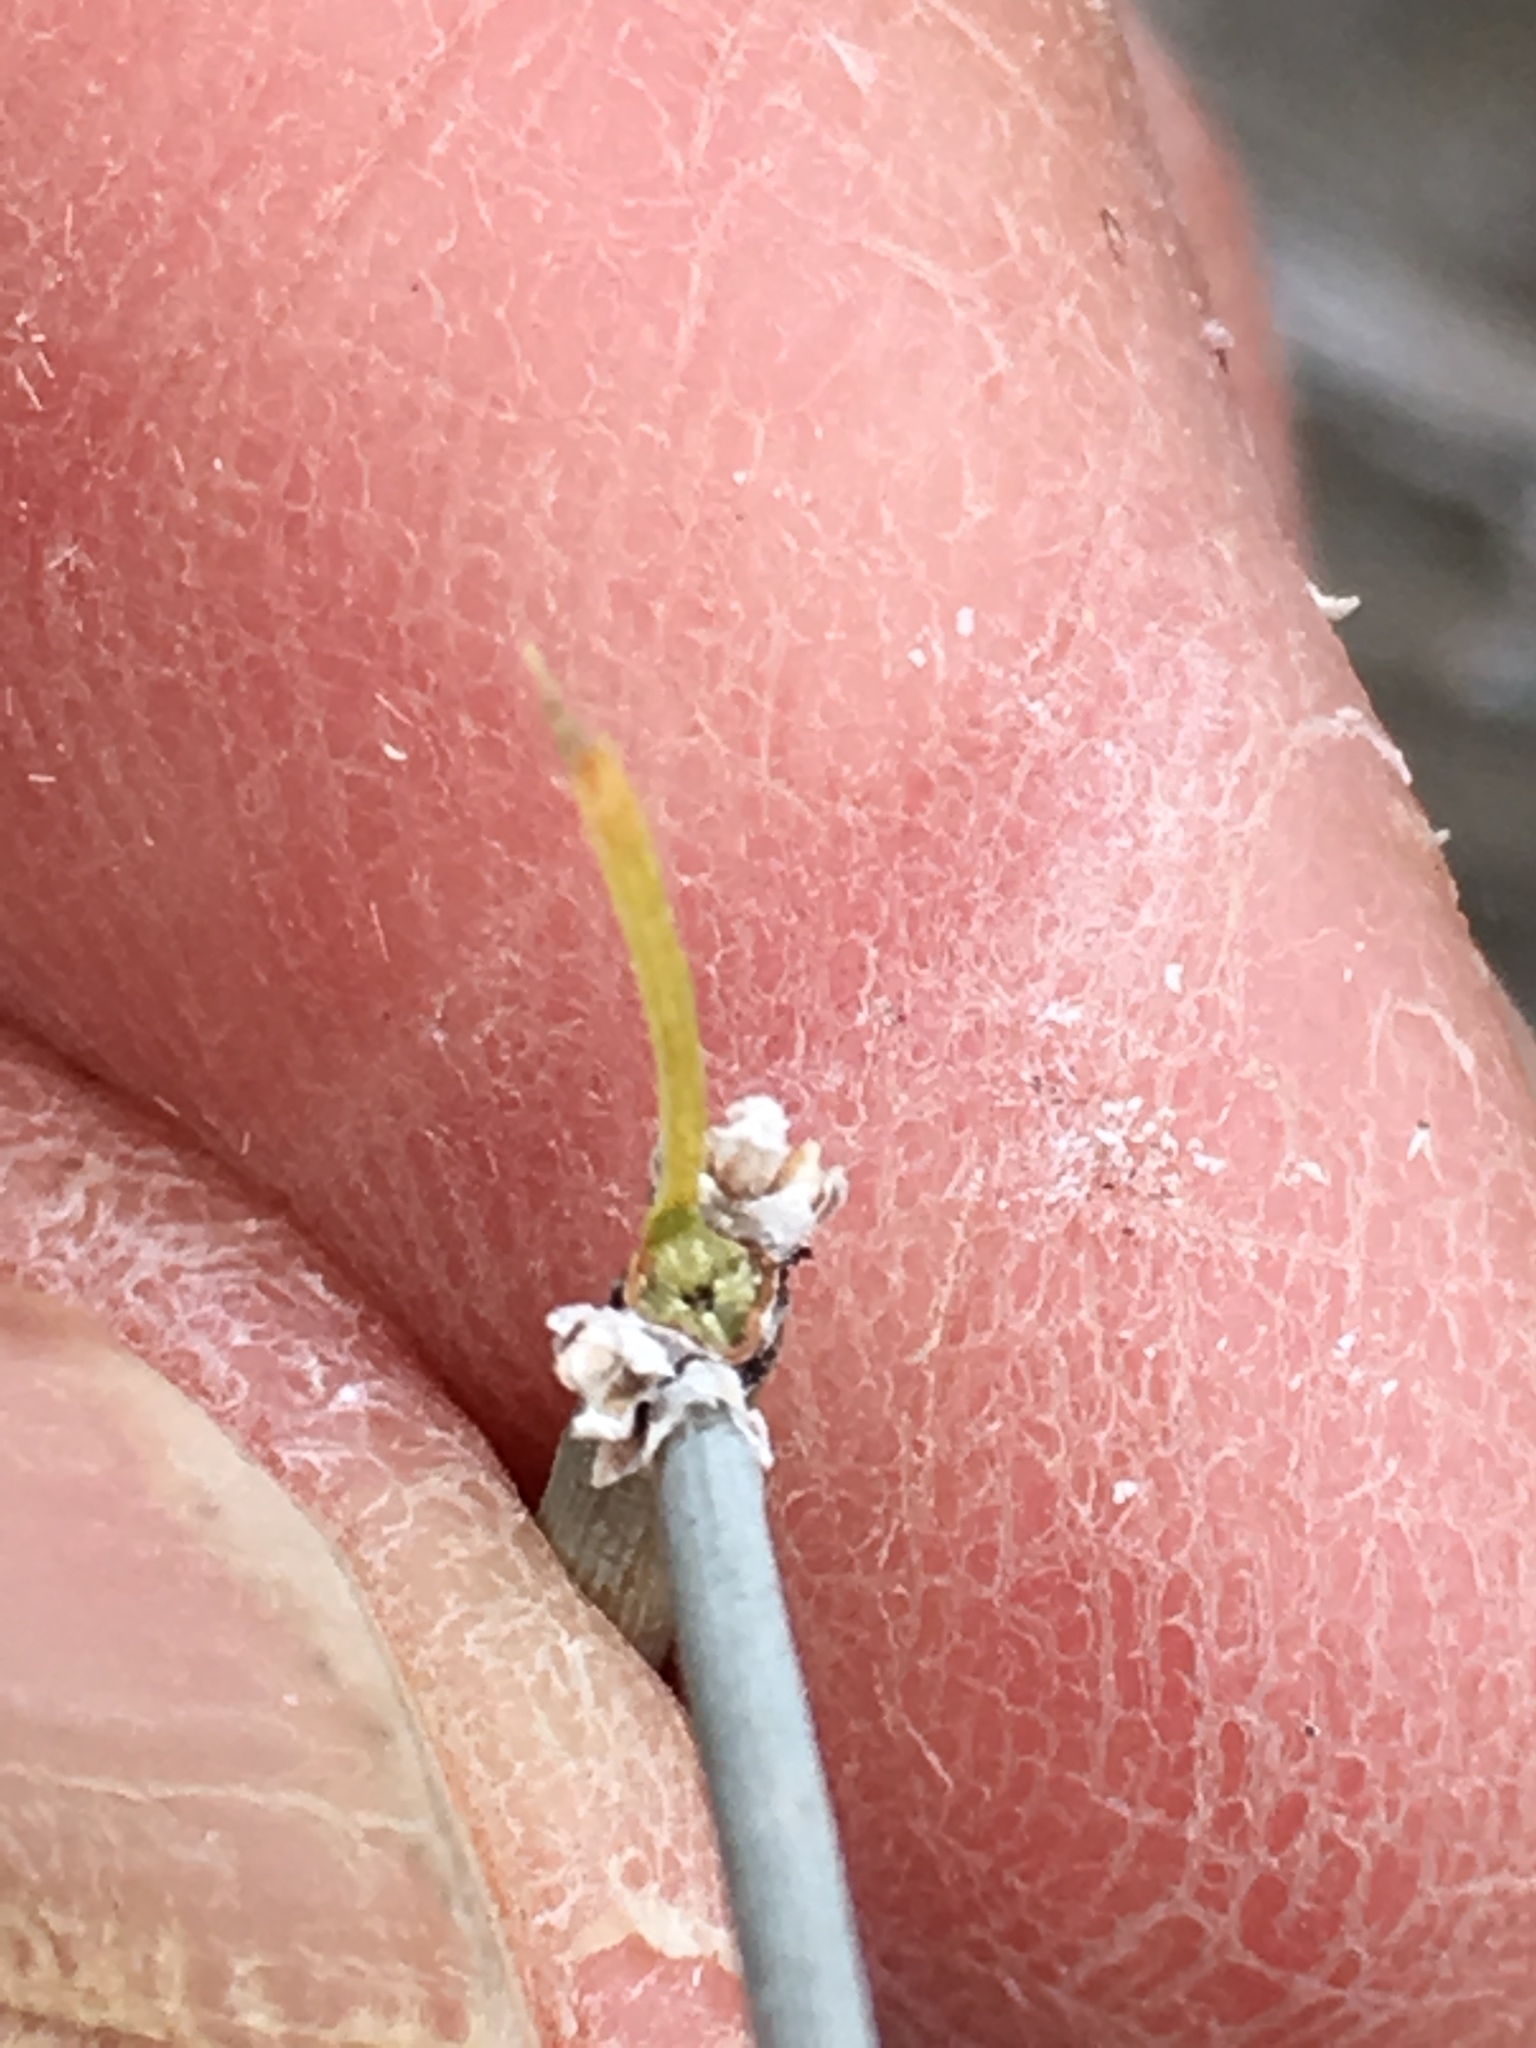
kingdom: Plantae
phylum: Tracheophyta
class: Gnetopsida
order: Ephedrales
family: Ephedraceae
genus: Ephedra
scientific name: Ephedra aspera
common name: Boundary ephedra
